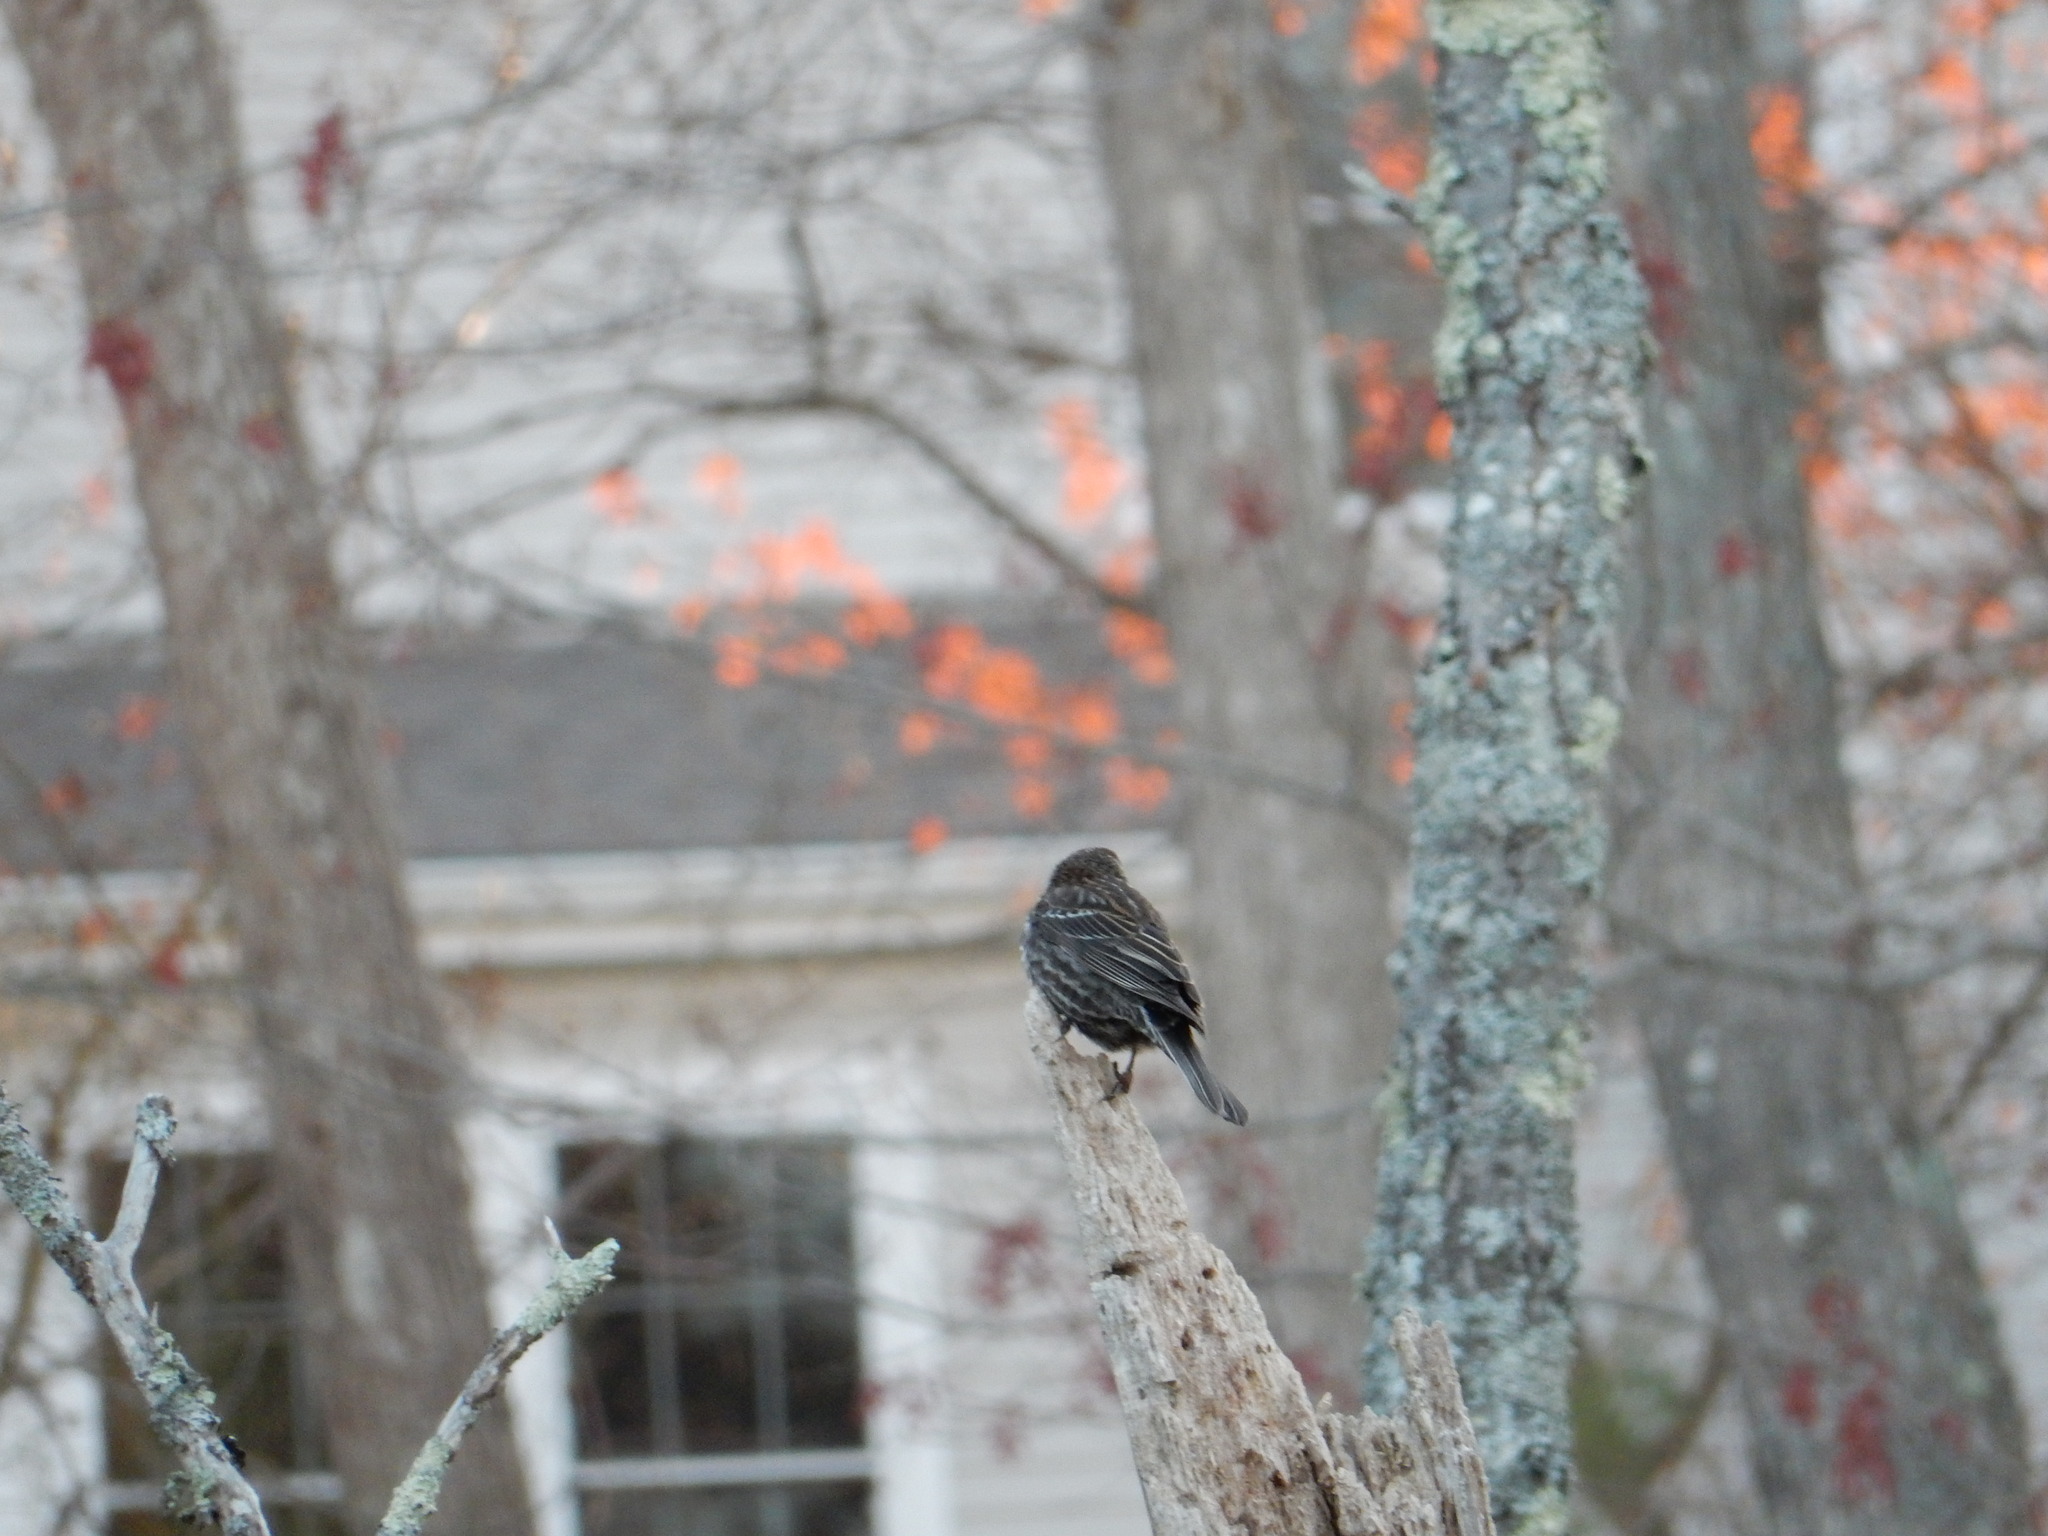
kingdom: Animalia
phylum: Chordata
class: Aves
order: Passeriformes
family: Icteridae
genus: Agelaius
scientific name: Agelaius phoeniceus
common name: Red-winged blackbird
